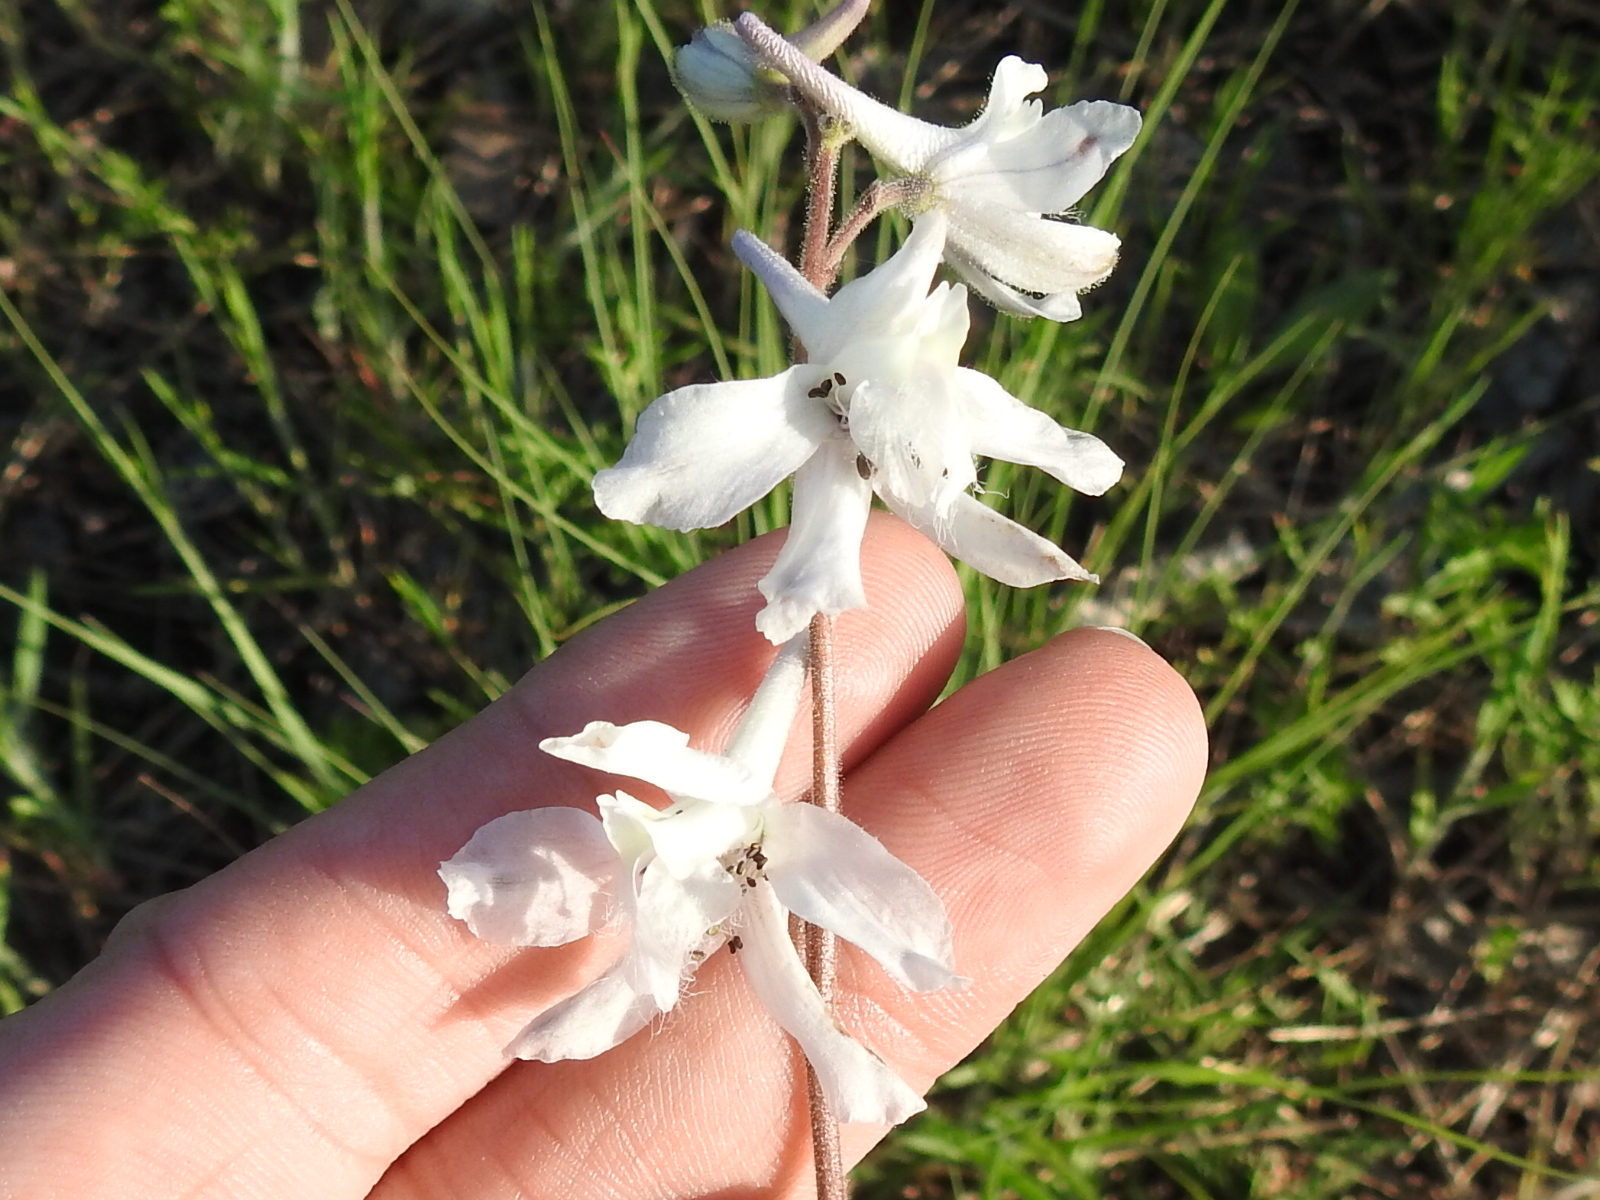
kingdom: Plantae
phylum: Tracheophyta
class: Magnoliopsida
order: Ranunculales
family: Ranunculaceae
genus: Delphinium
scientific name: Delphinium carolinianum
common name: Carolina larkspur
